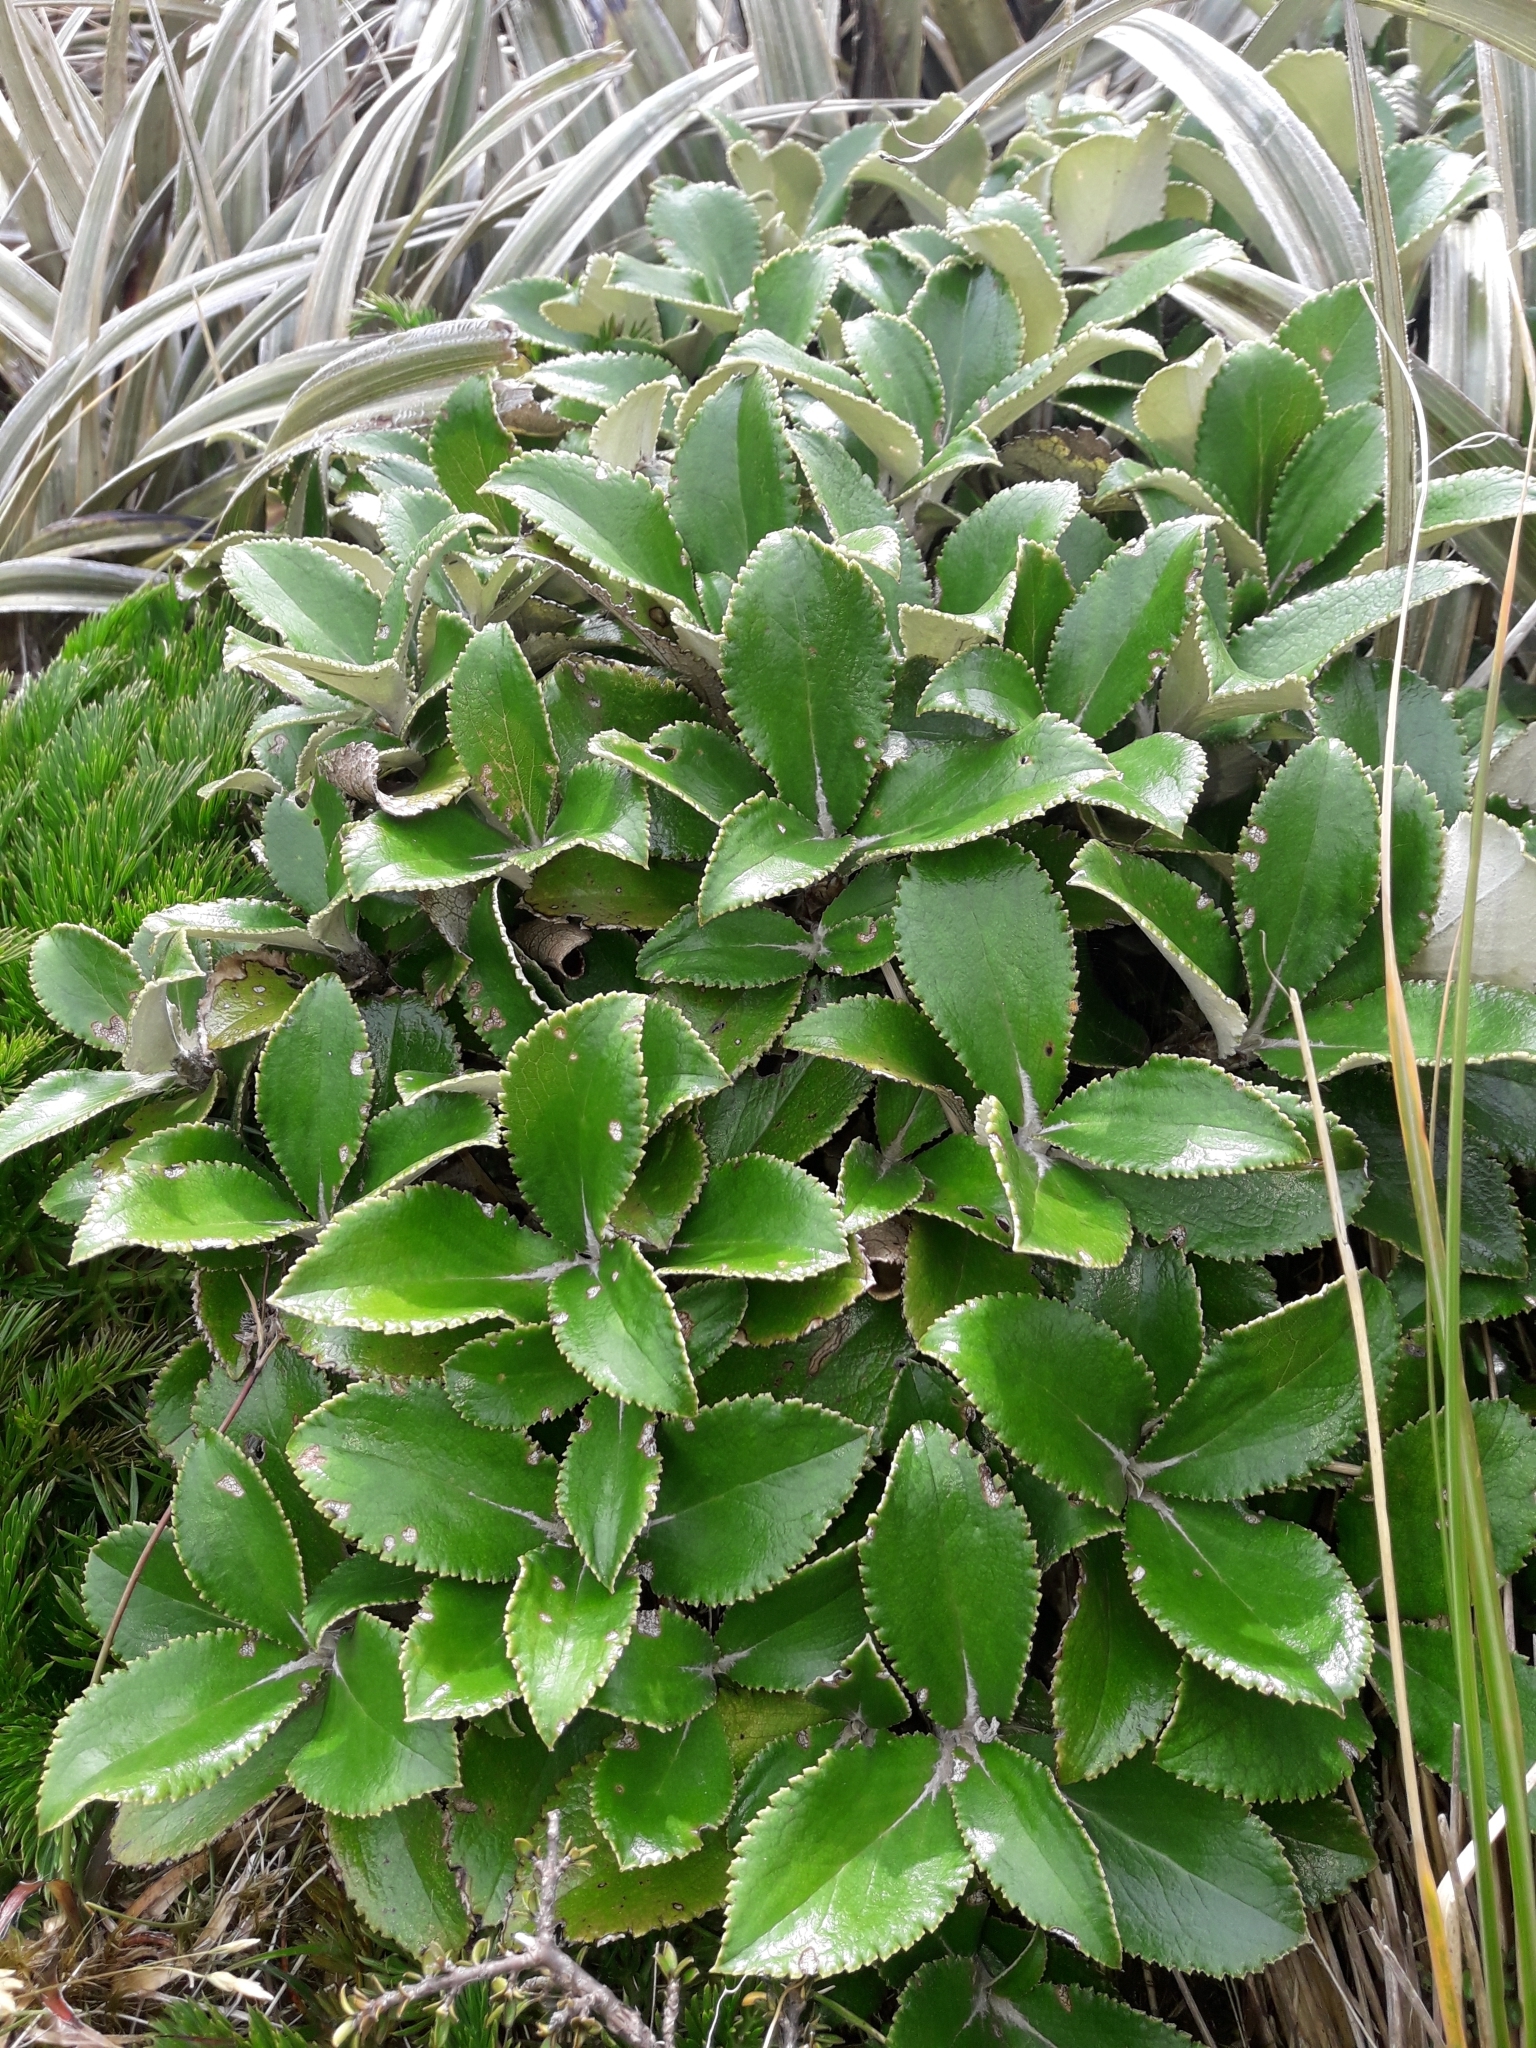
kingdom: Plantae
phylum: Tracheophyta
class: Magnoliopsida
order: Asterales
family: Asteraceae
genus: Macrolearia
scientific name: Macrolearia colensoi
